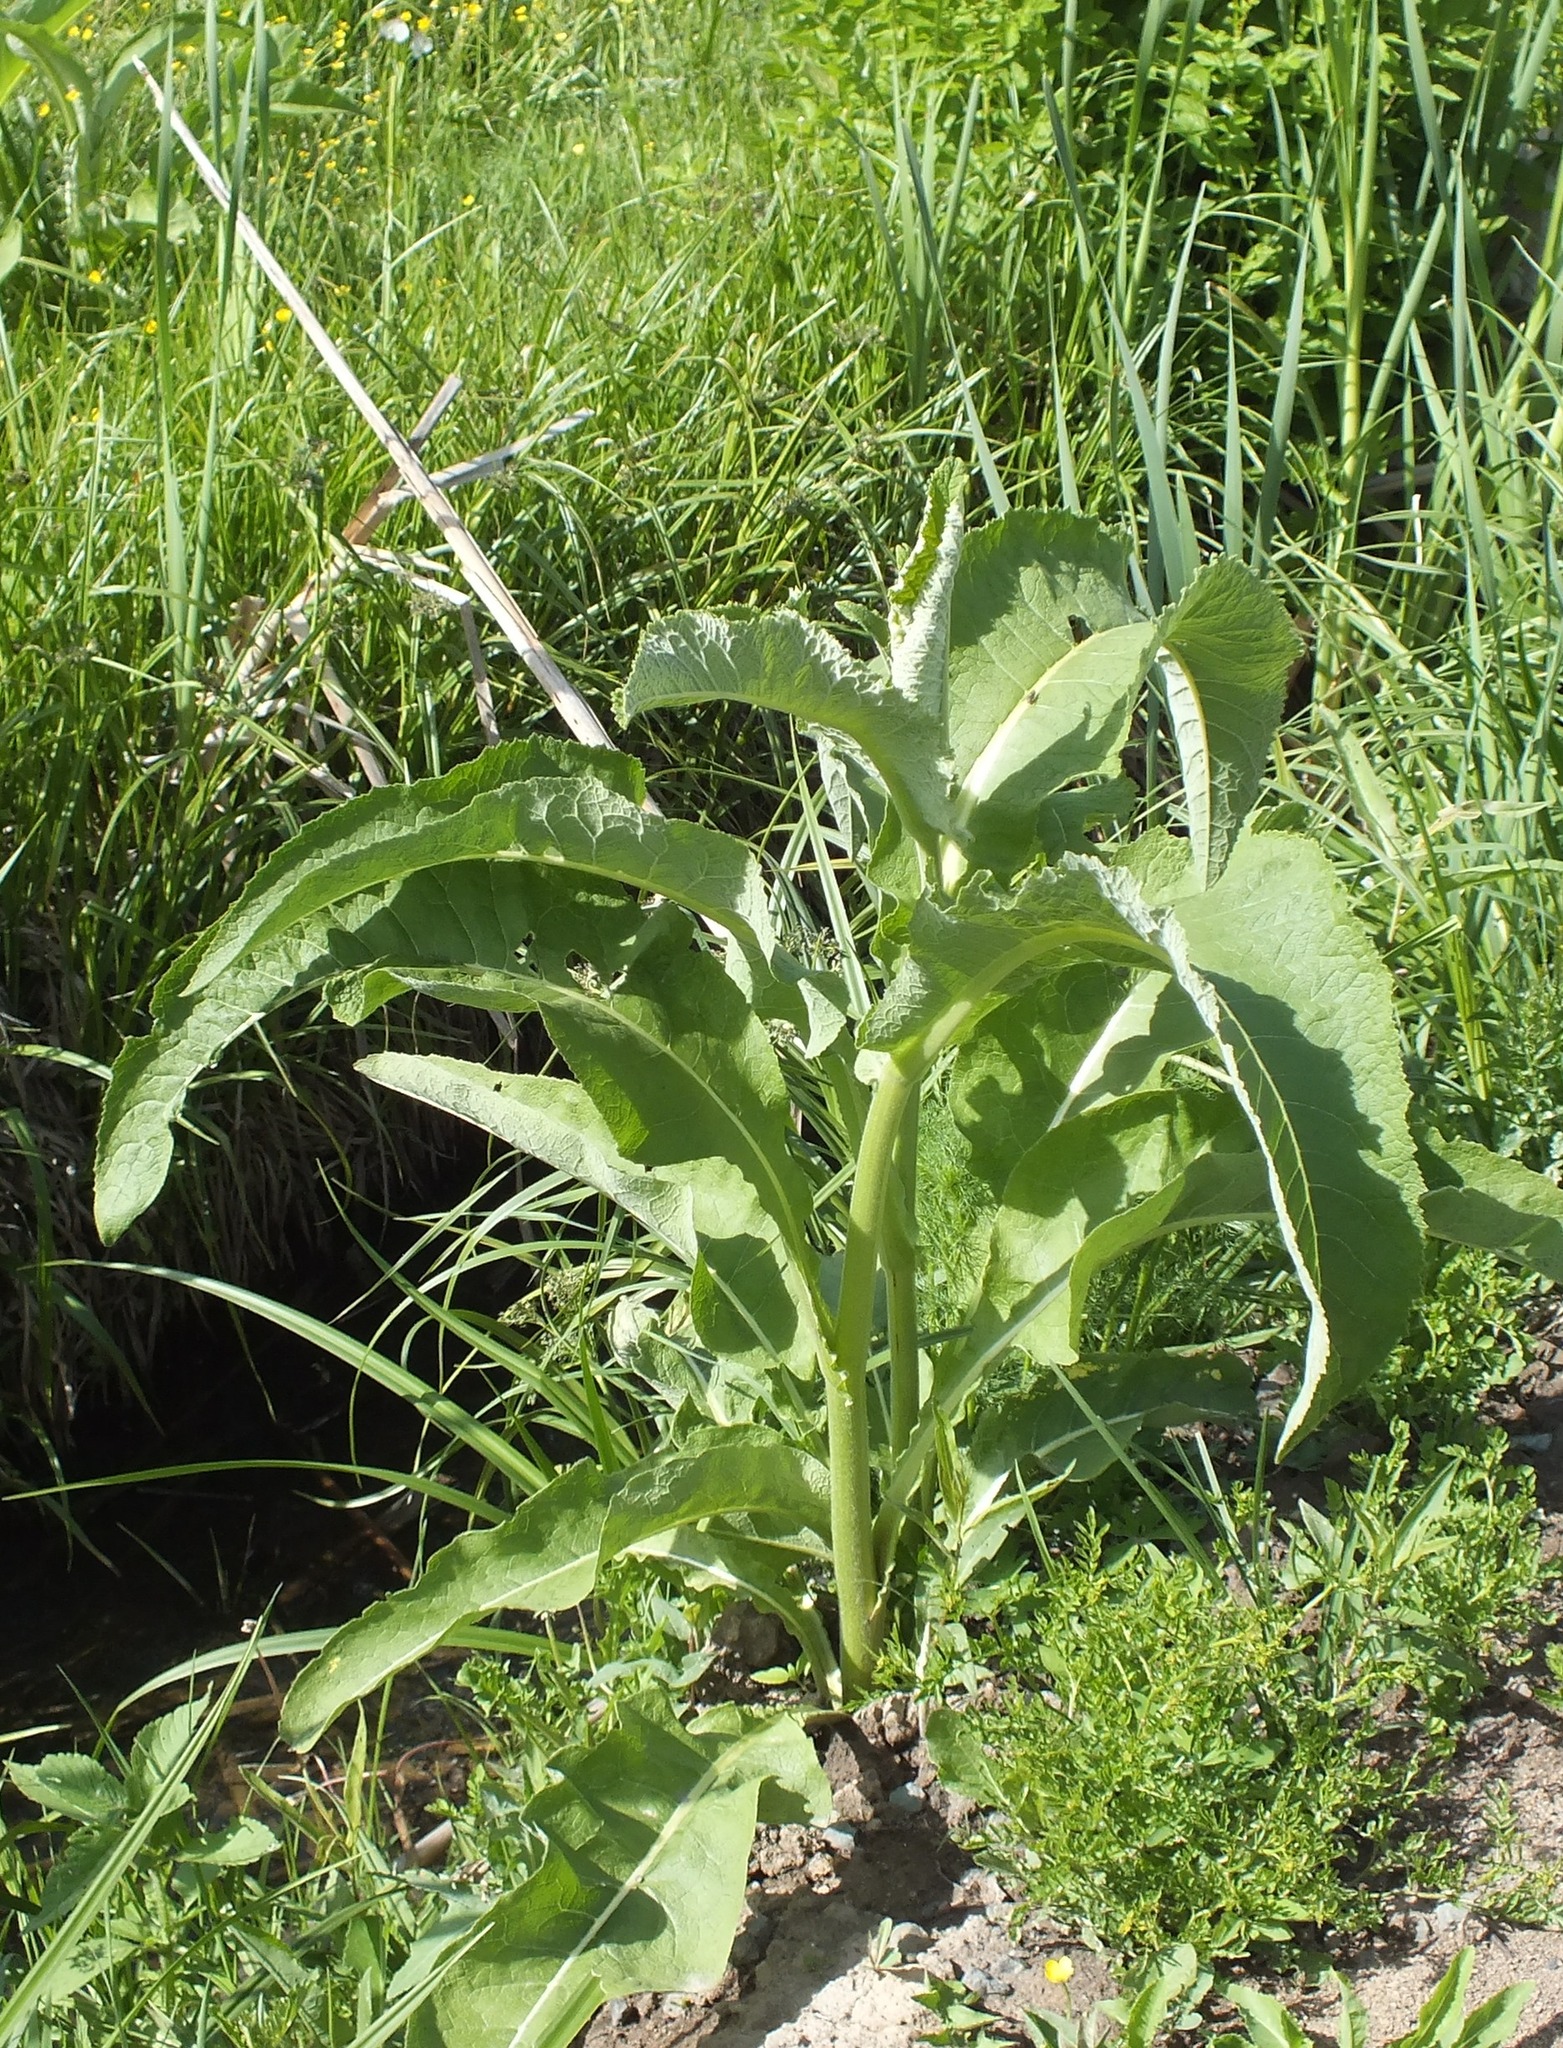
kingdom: Plantae
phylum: Tracheophyta
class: Magnoliopsida
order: Asterales
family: Asteraceae
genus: Inula
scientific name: Inula helenium
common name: Elecampane
